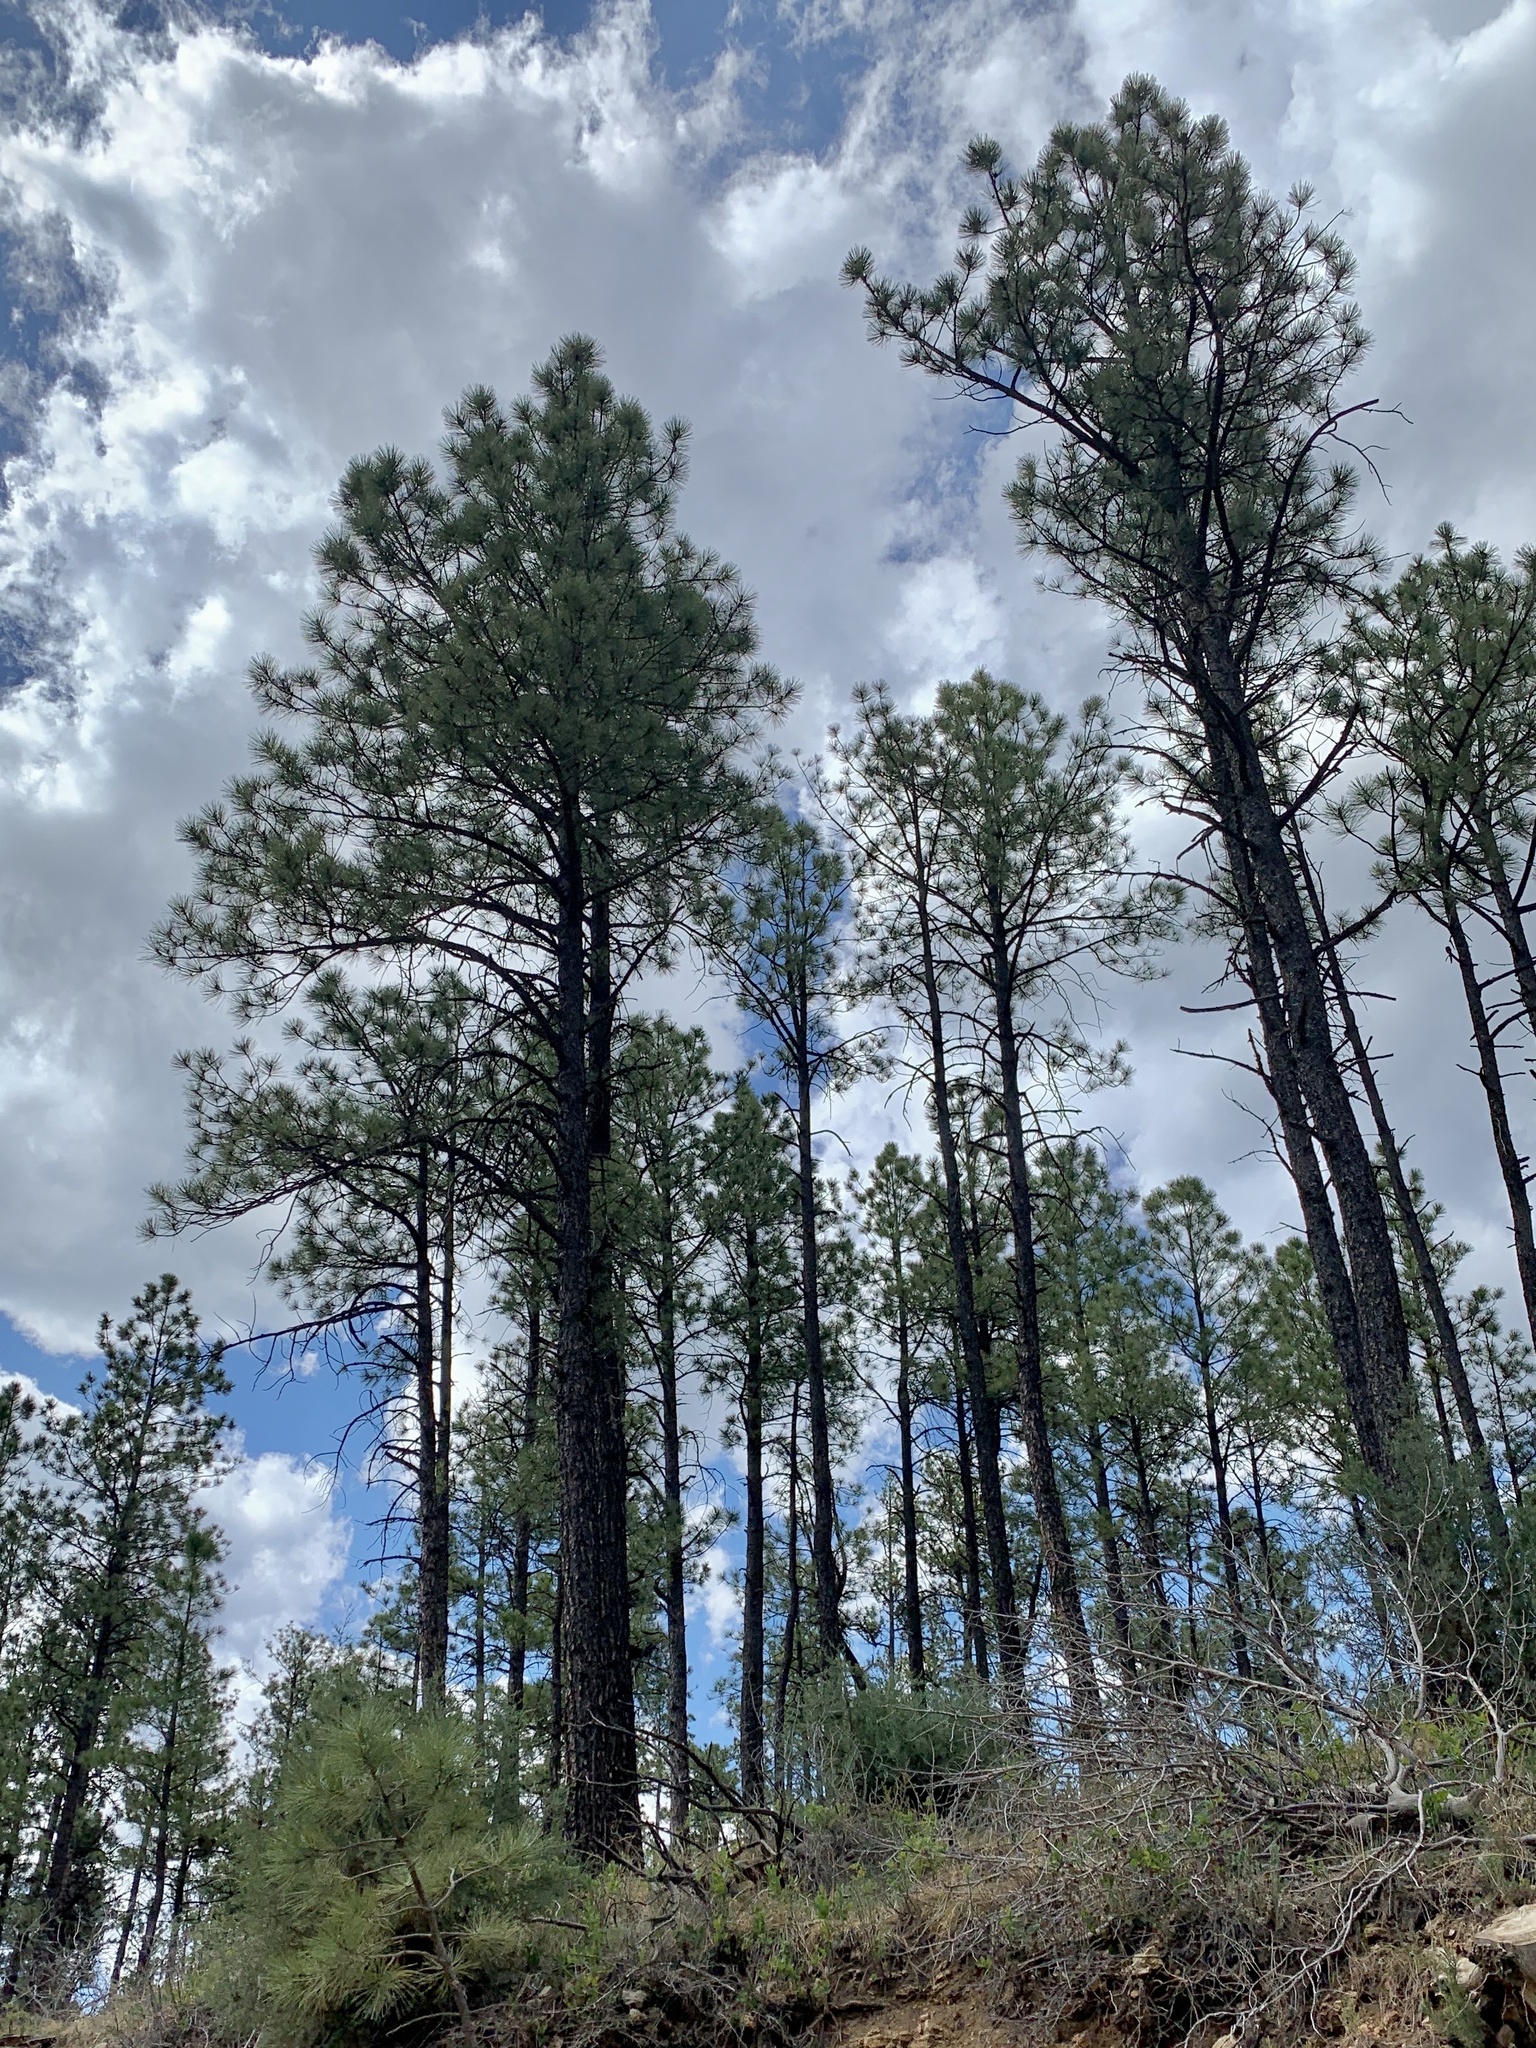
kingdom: Plantae
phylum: Tracheophyta
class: Pinopsida
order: Pinales
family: Pinaceae
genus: Pinus
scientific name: Pinus ponderosa
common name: Western yellow-pine
